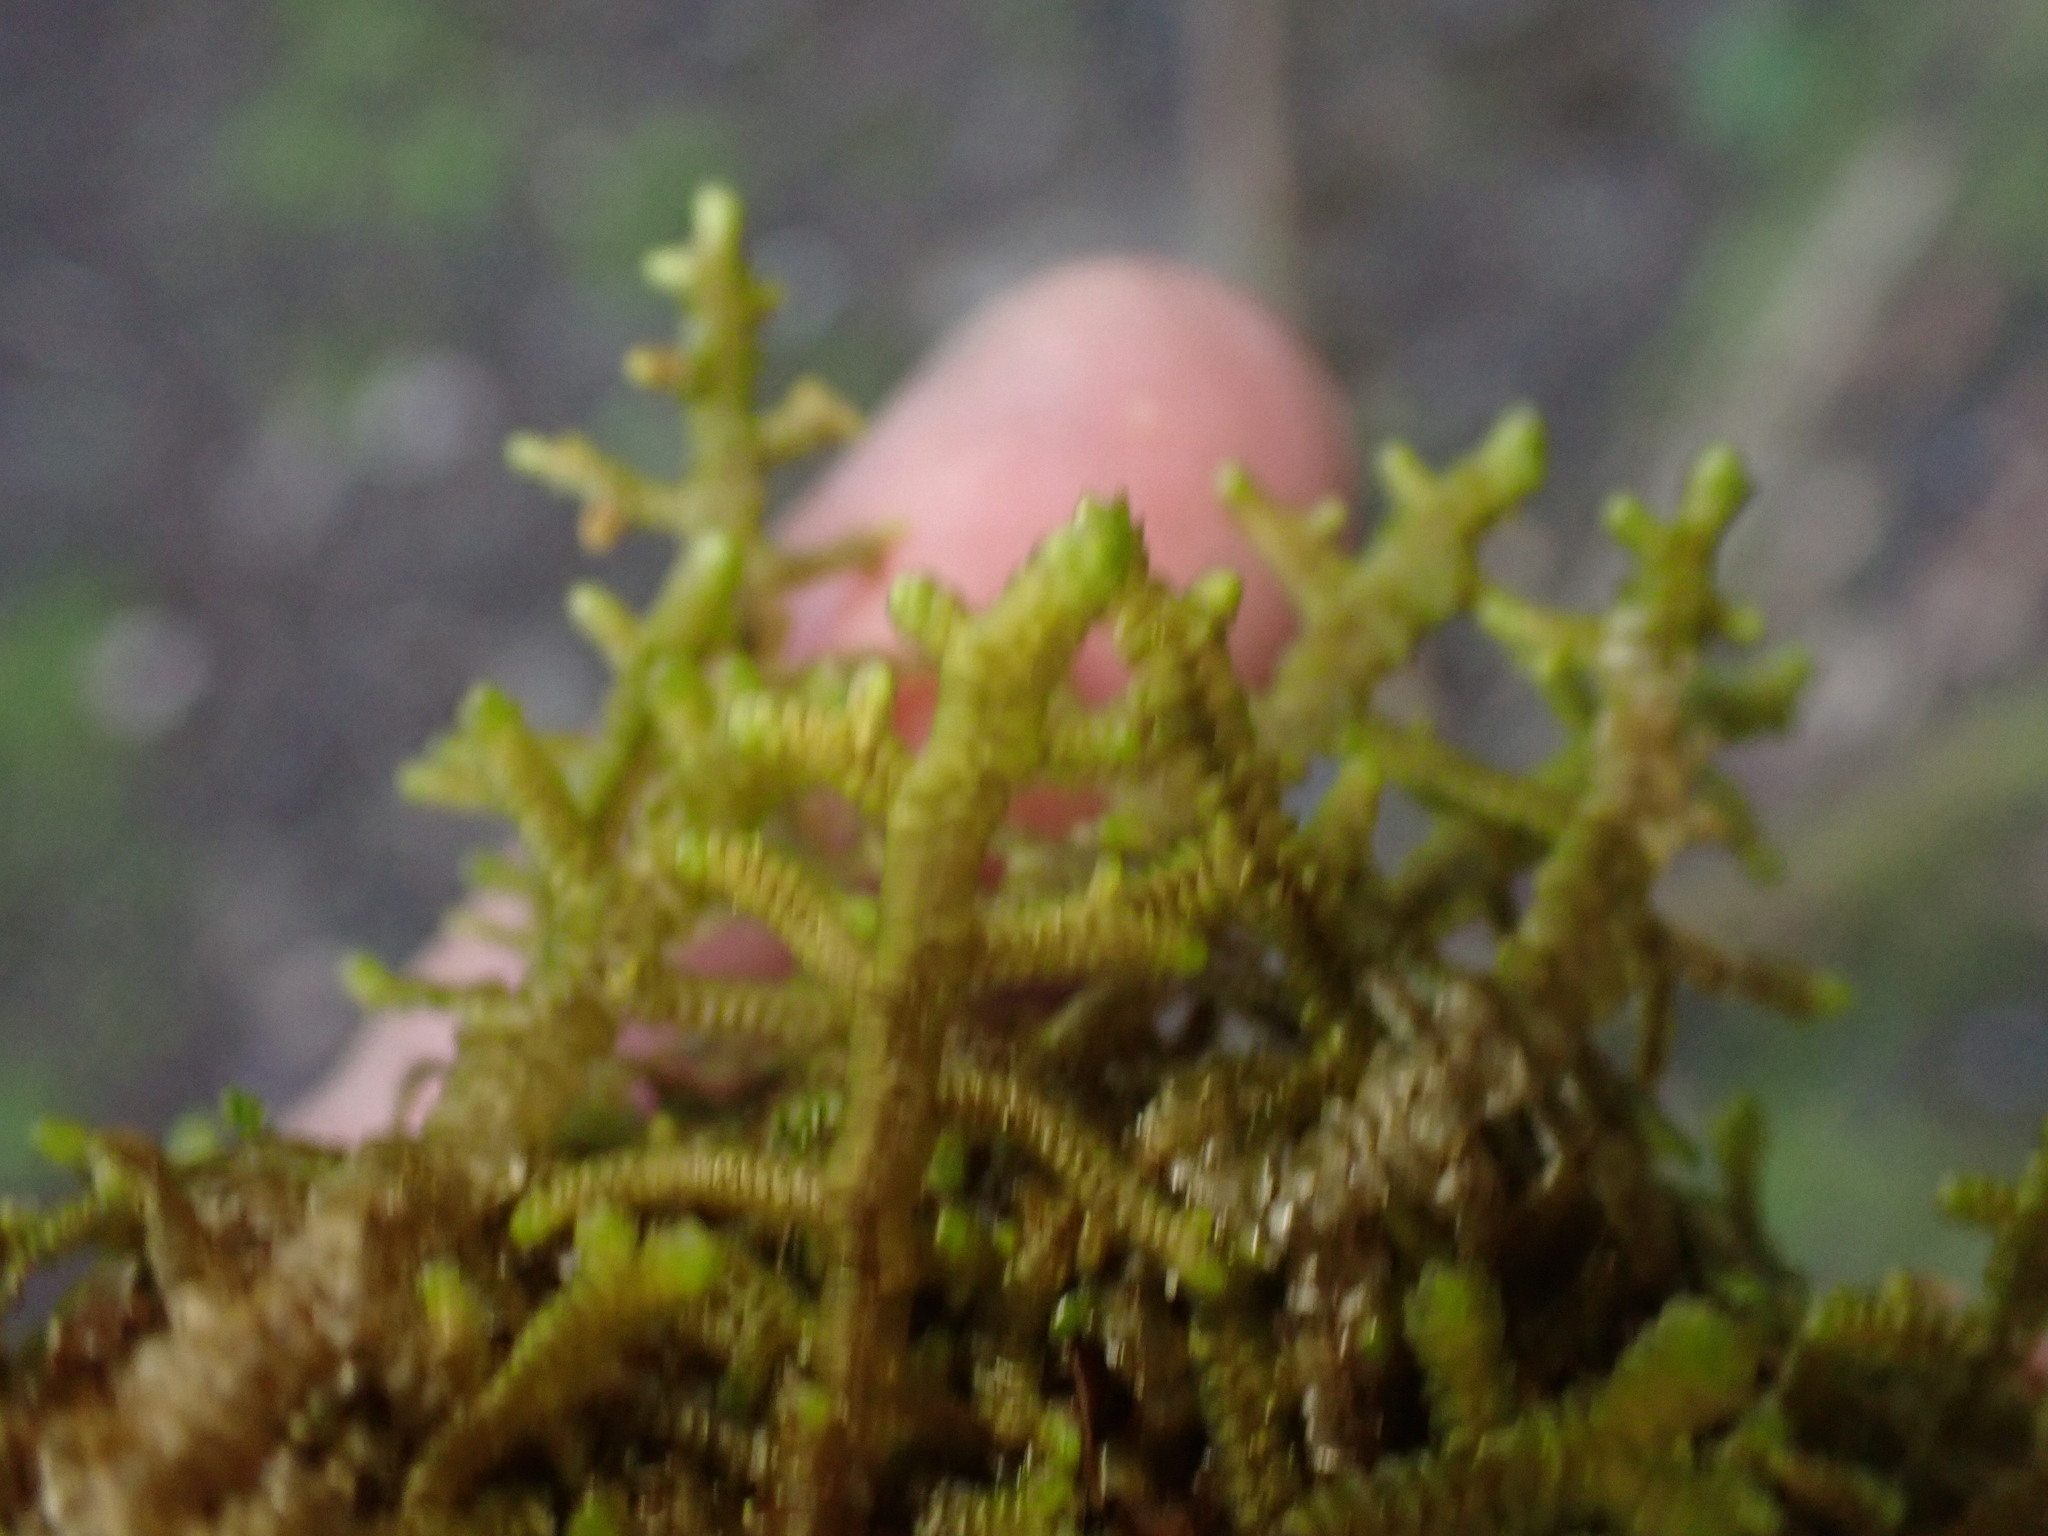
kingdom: Plantae
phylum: Marchantiophyta
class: Jungermanniopsida
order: Porellales
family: Porellaceae
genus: Porella
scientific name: Porella navicularis
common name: Tree ruffle liverwort
